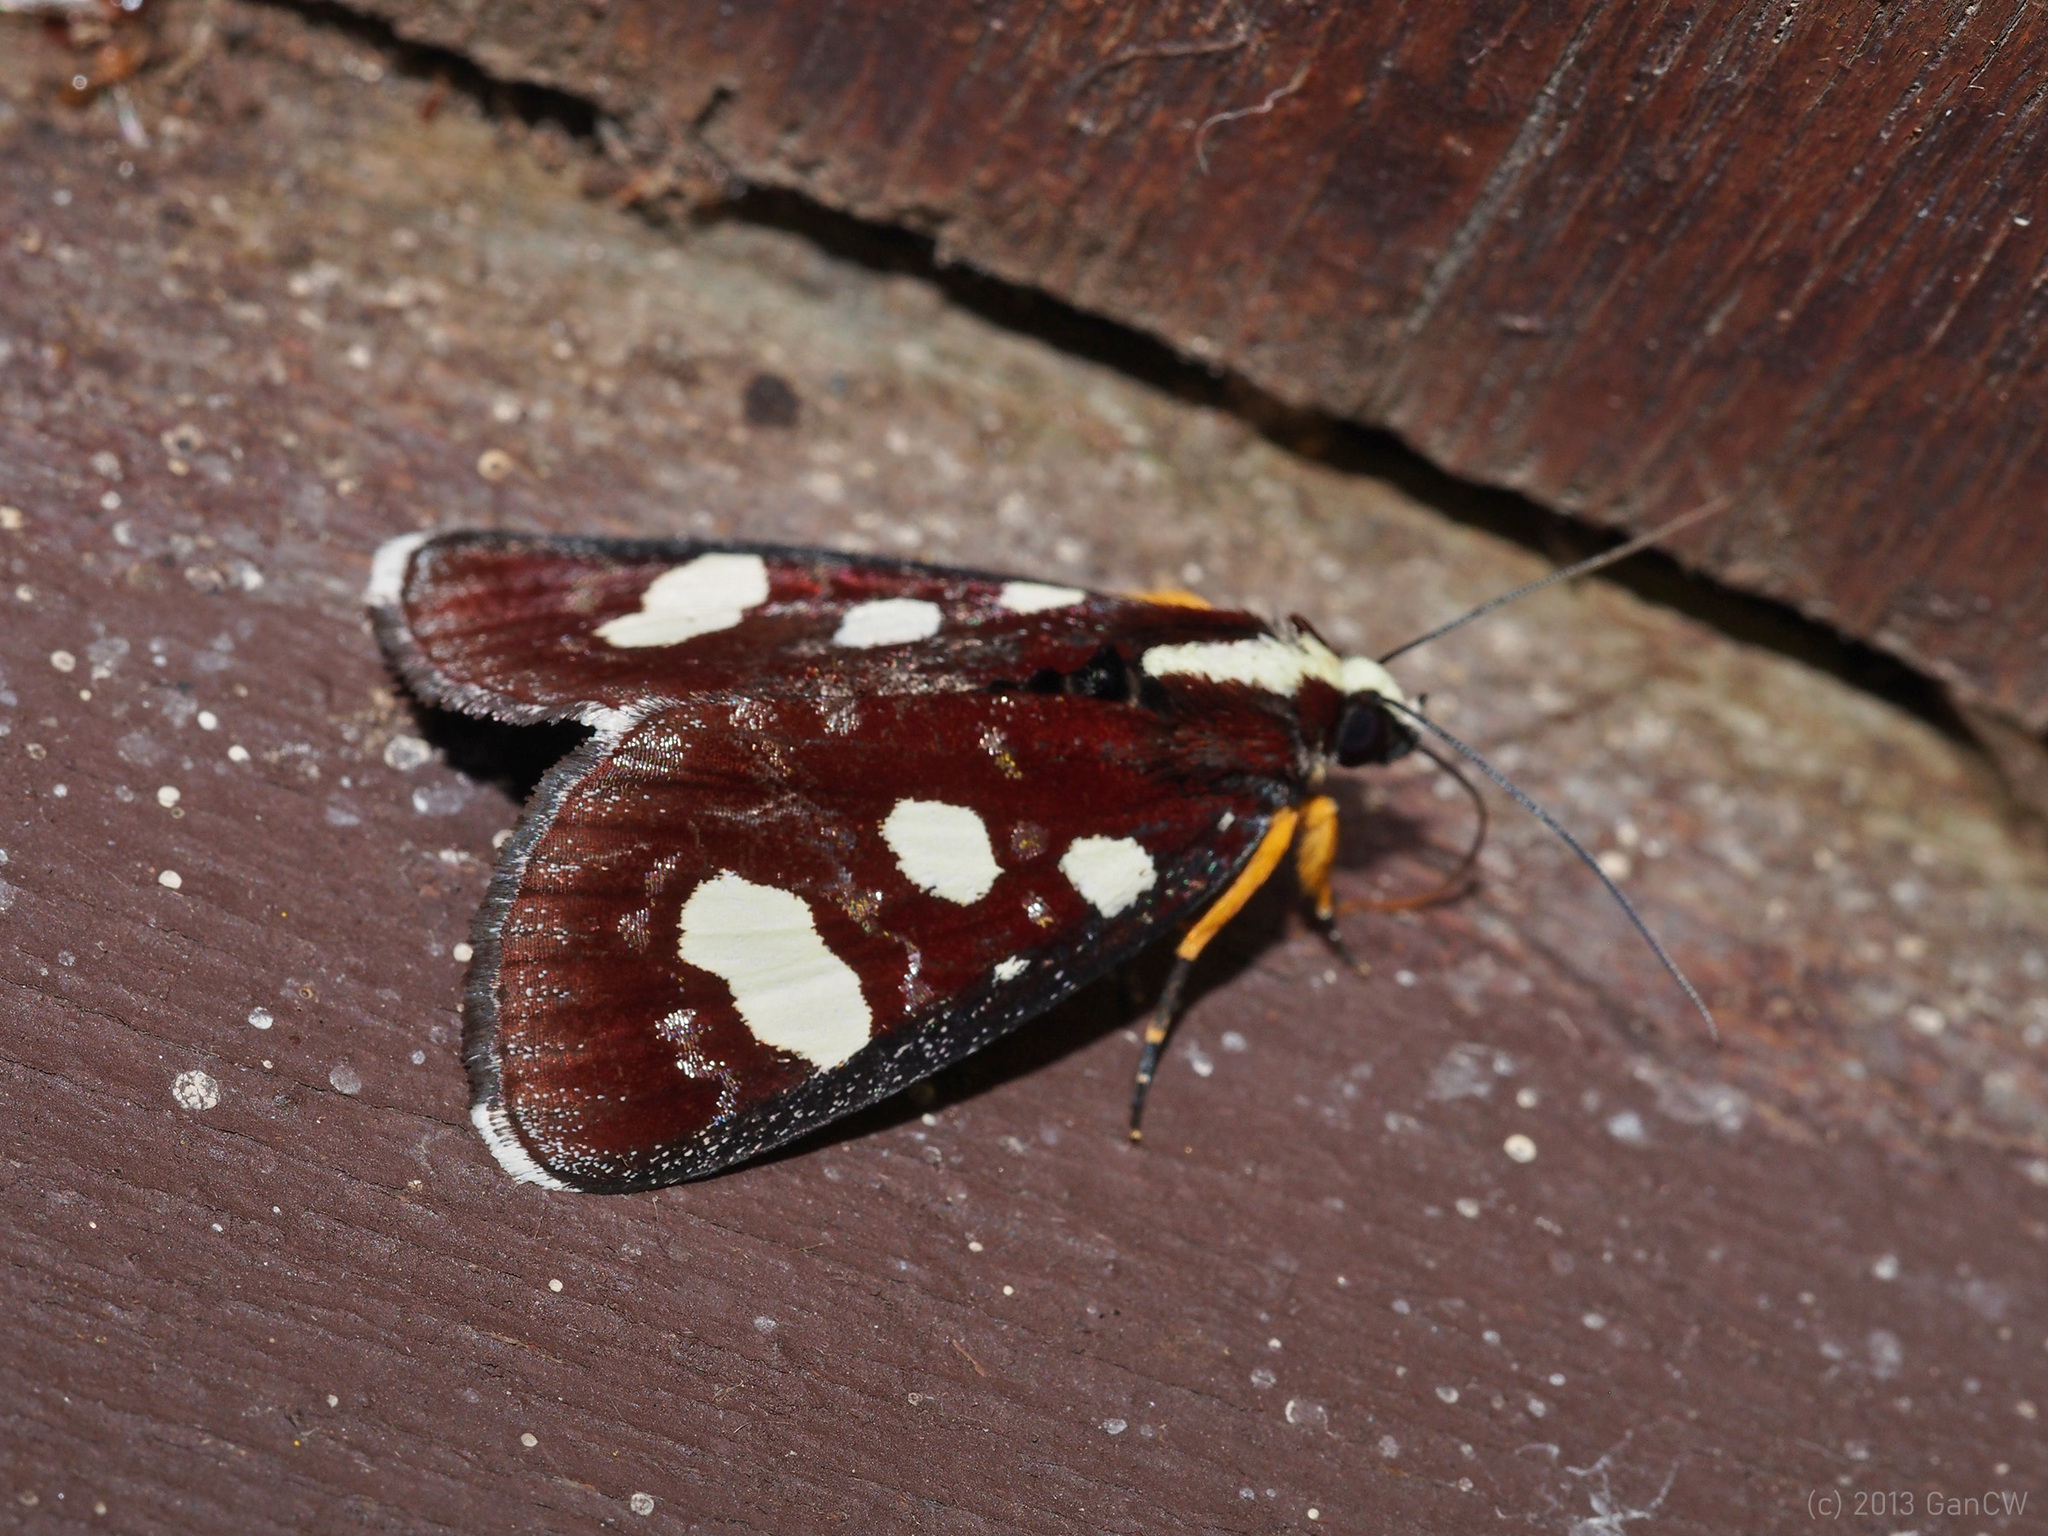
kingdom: Animalia
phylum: Arthropoda
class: Insecta
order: Lepidoptera
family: Noctuidae
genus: Mimeusemia
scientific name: Mimeusemia postica
